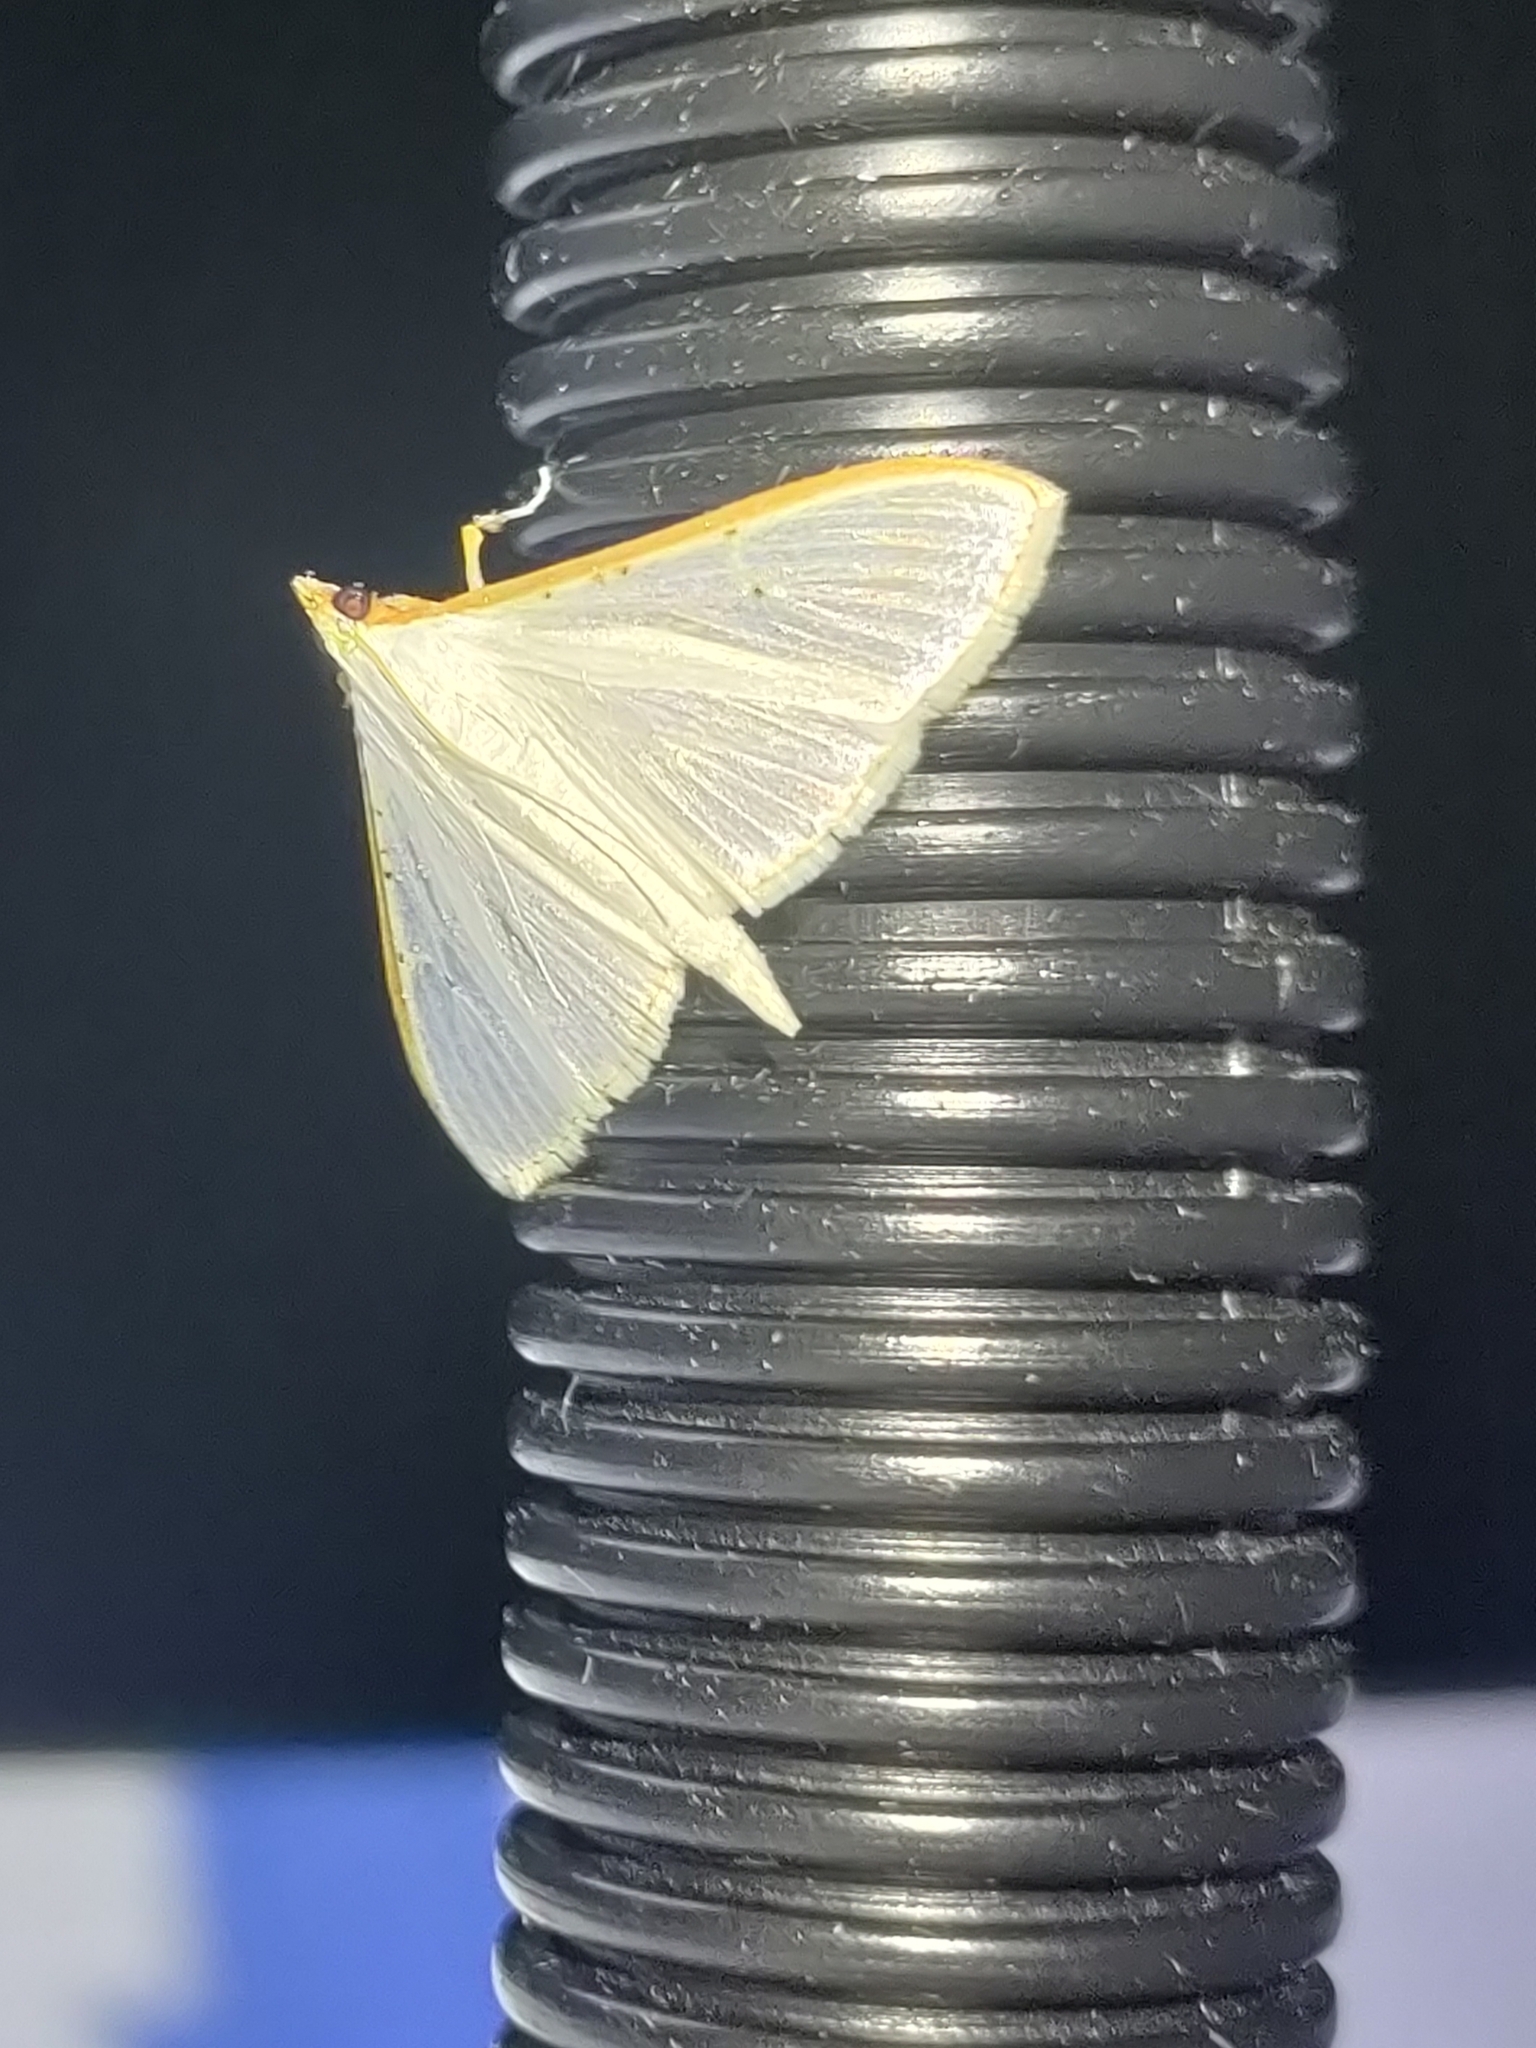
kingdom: Animalia
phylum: Arthropoda
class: Insecta
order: Lepidoptera
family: Crambidae
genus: Palpita
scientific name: Palpita vitrealis
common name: Olive-tree pearl
